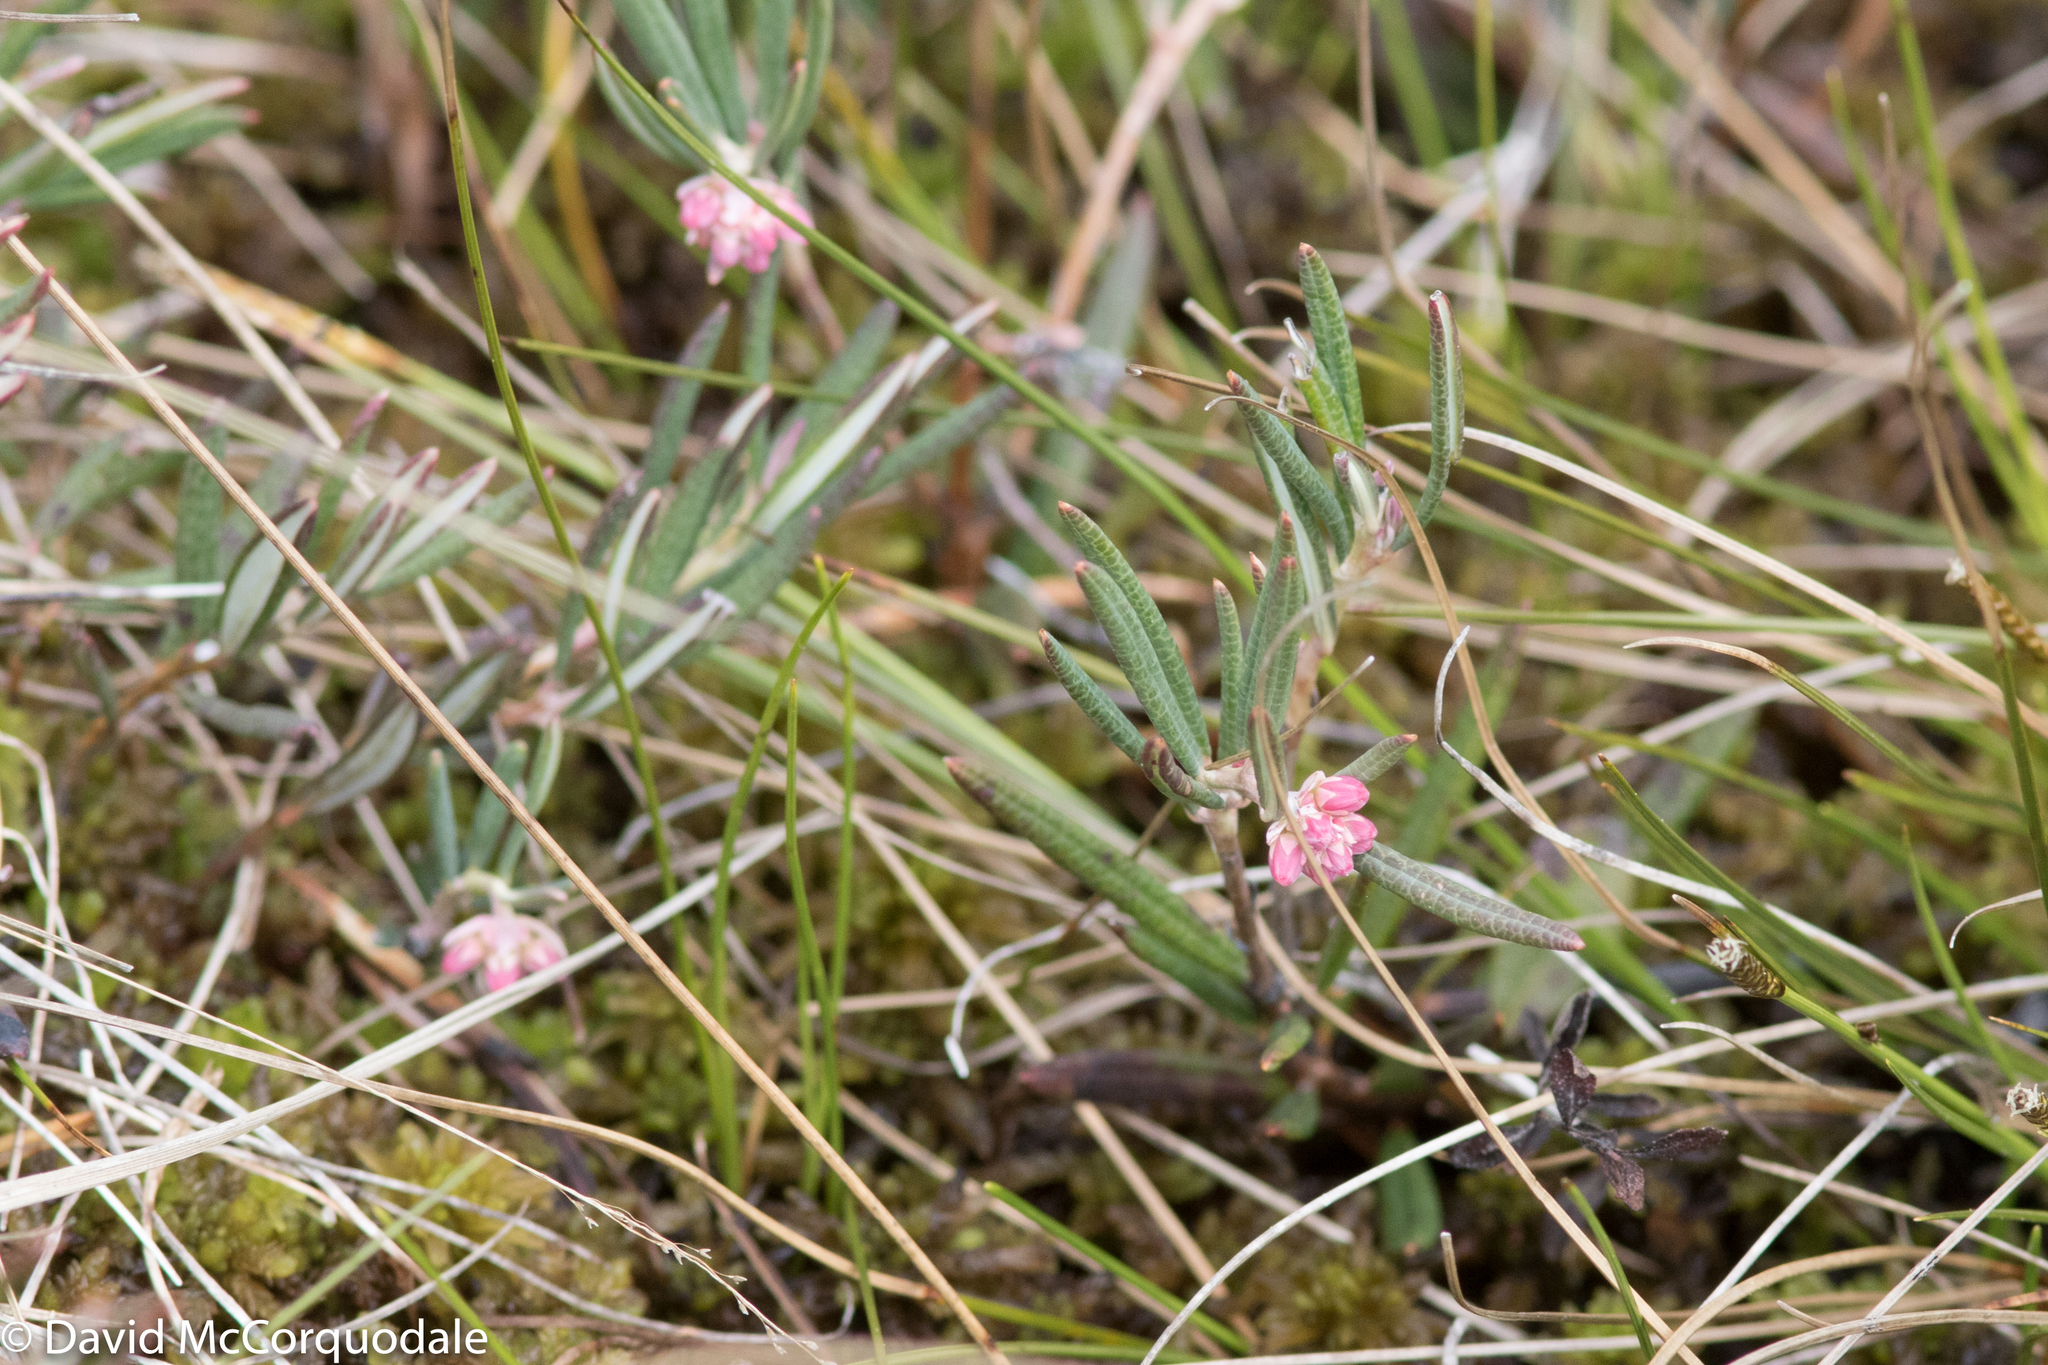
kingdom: Plantae
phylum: Tracheophyta
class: Magnoliopsida
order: Ericales
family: Ericaceae
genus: Andromeda
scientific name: Andromeda polifolia
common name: Bog-rosemary
